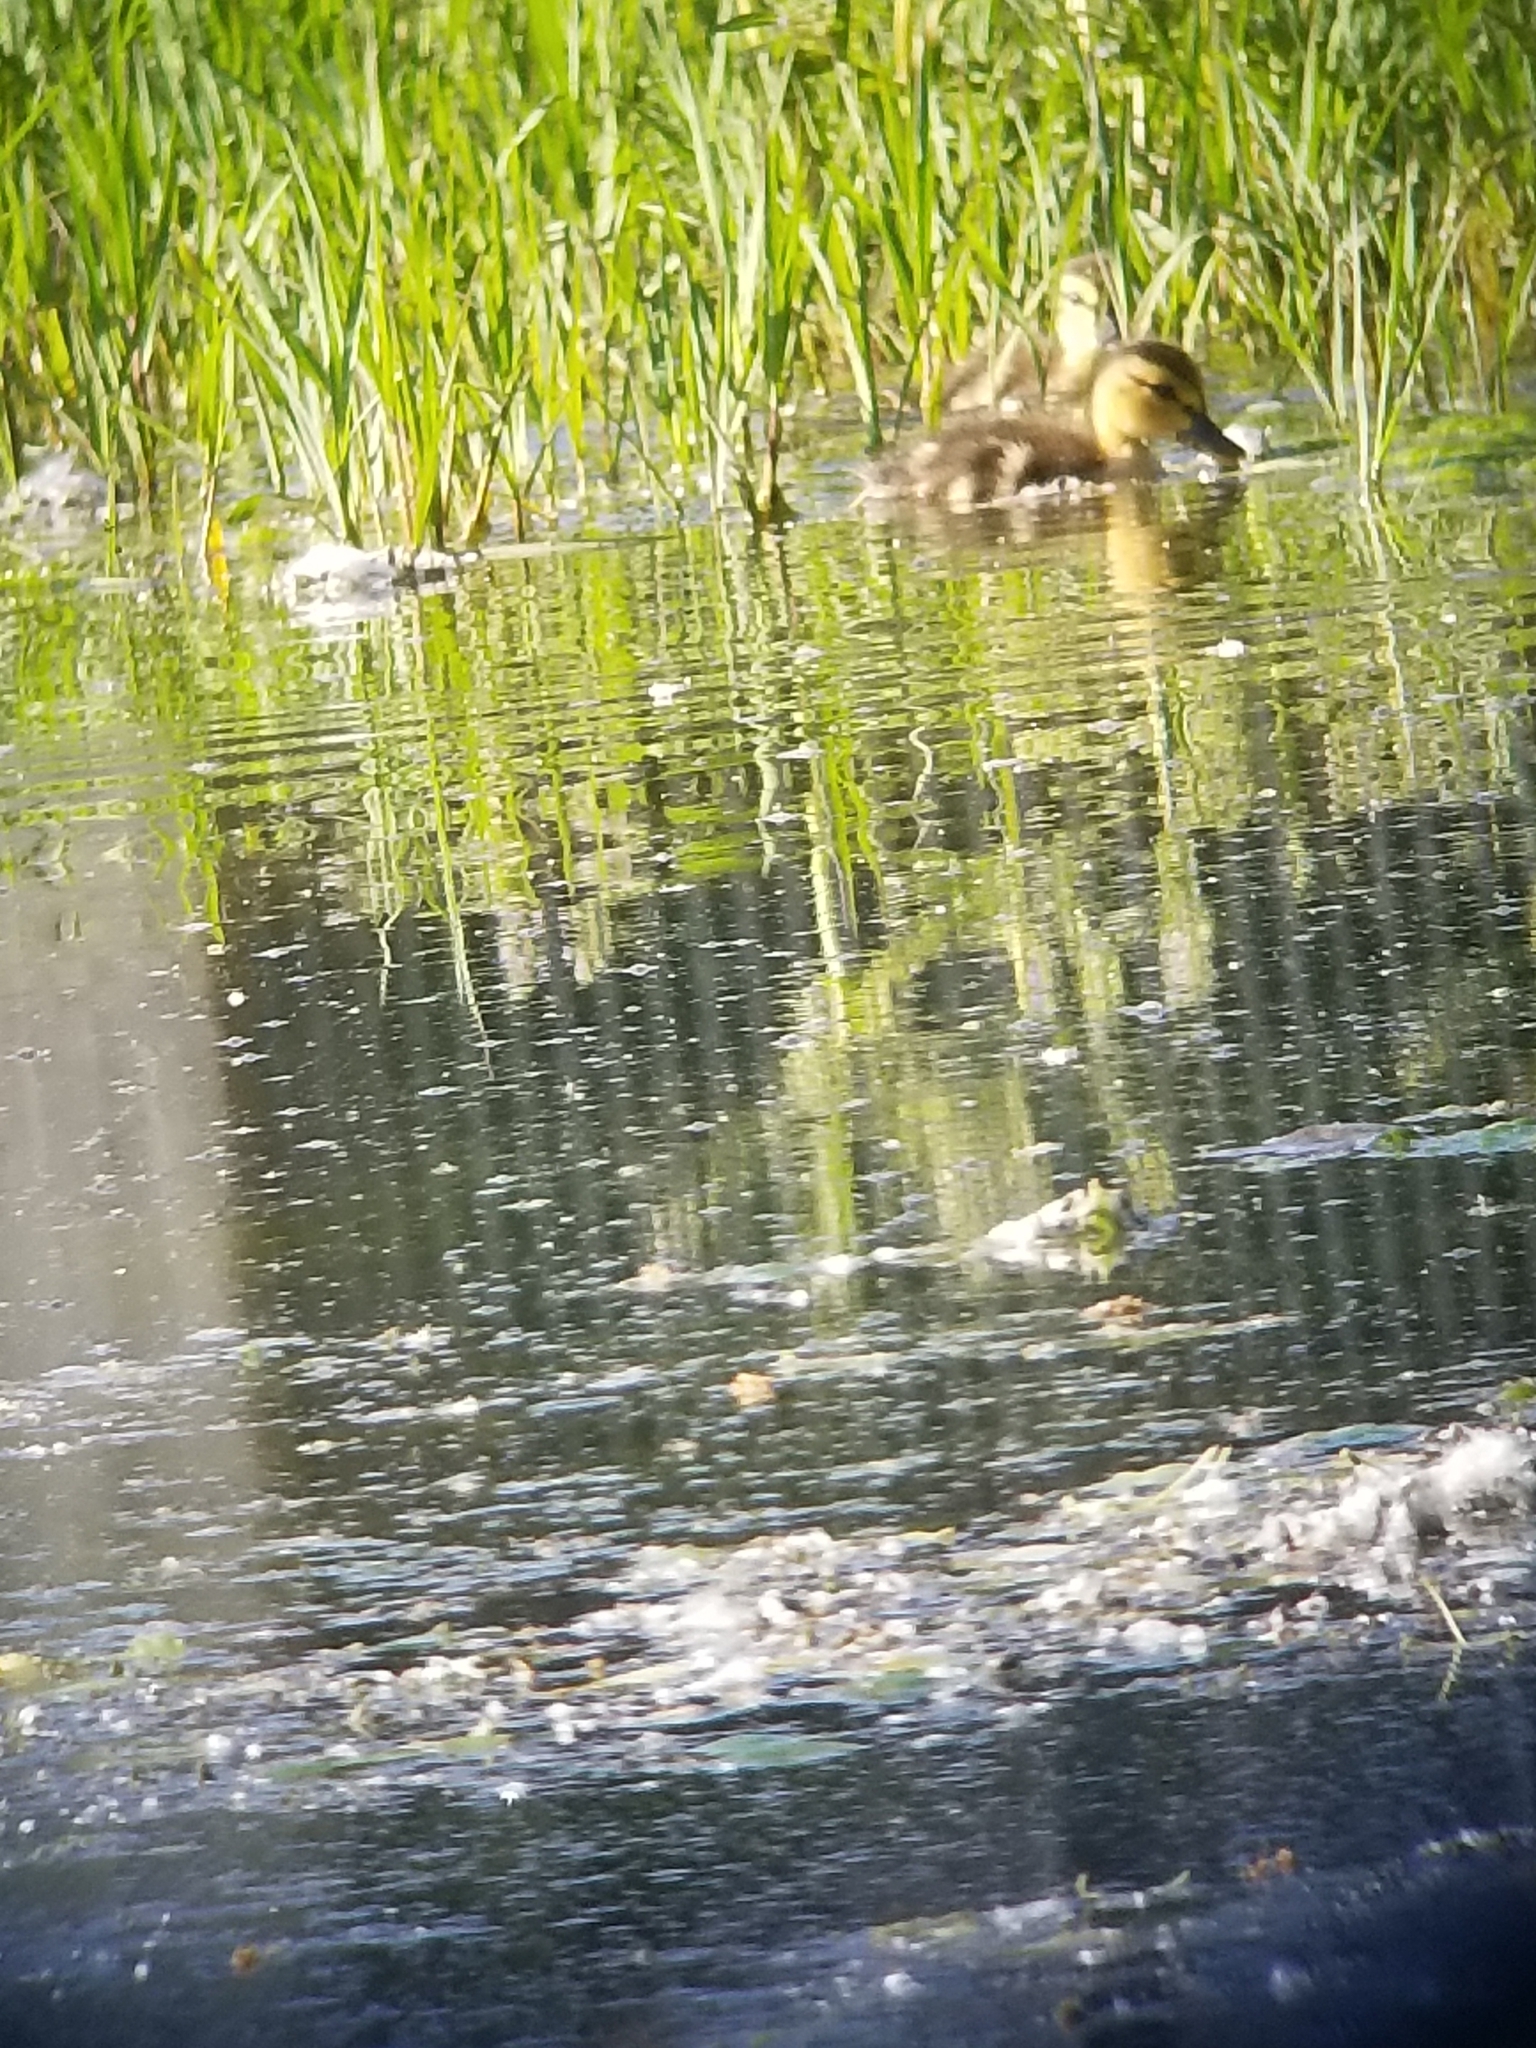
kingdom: Animalia
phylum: Chordata
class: Aves
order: Anseriformes
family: Anatidae
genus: Anas
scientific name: Anas platyrhynchos
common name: Mallard
